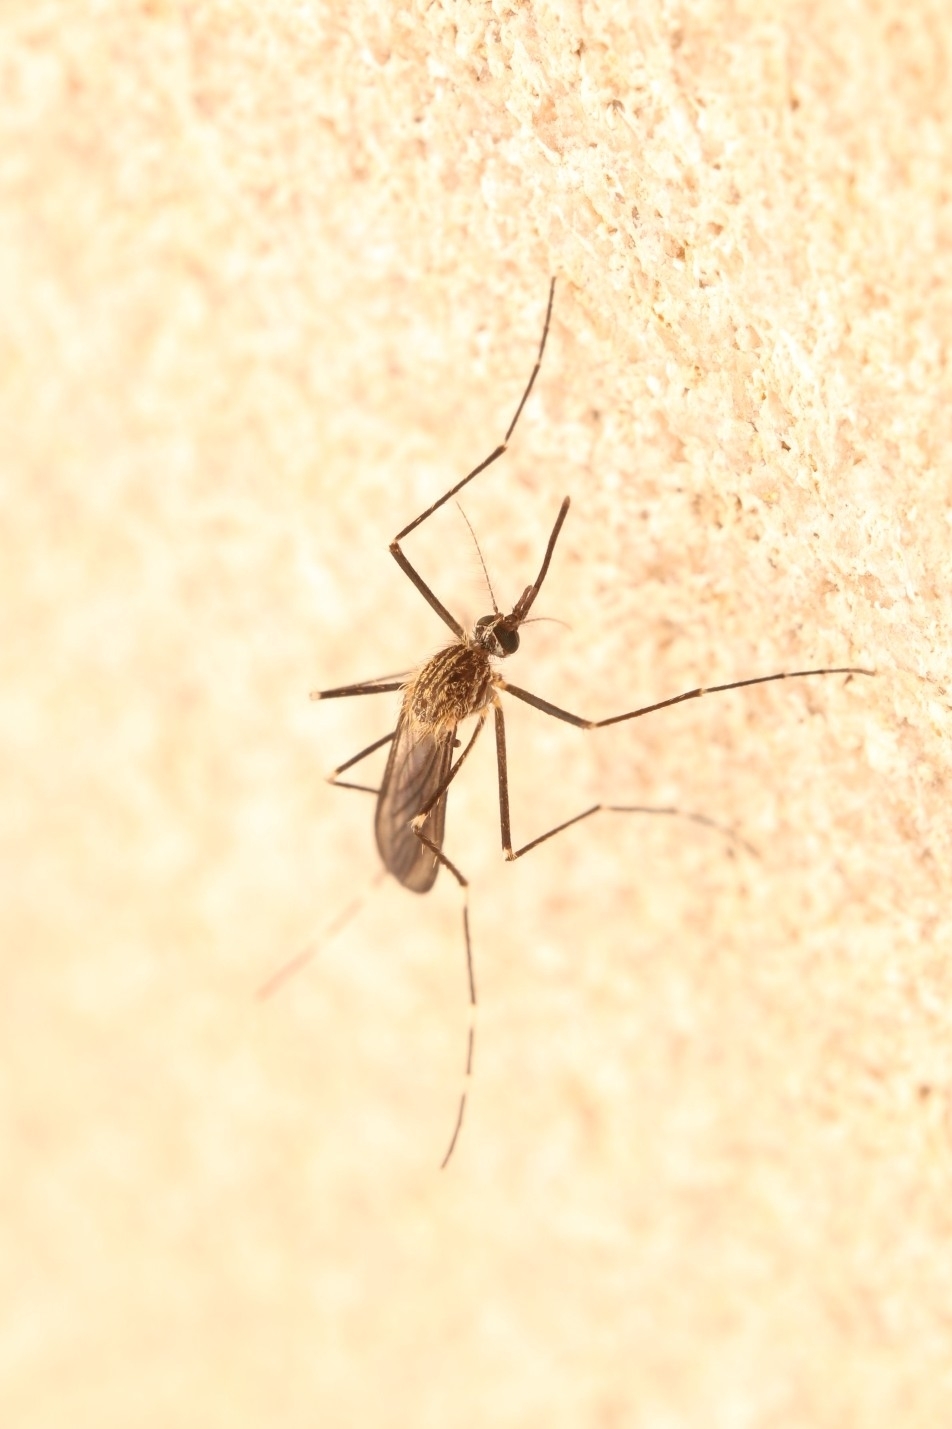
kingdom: Animalia
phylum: Arthropoda
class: Insecta
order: Diptera
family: Culicidae
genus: Aedes
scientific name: Aedes japonicus
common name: Asian bush mosquito
